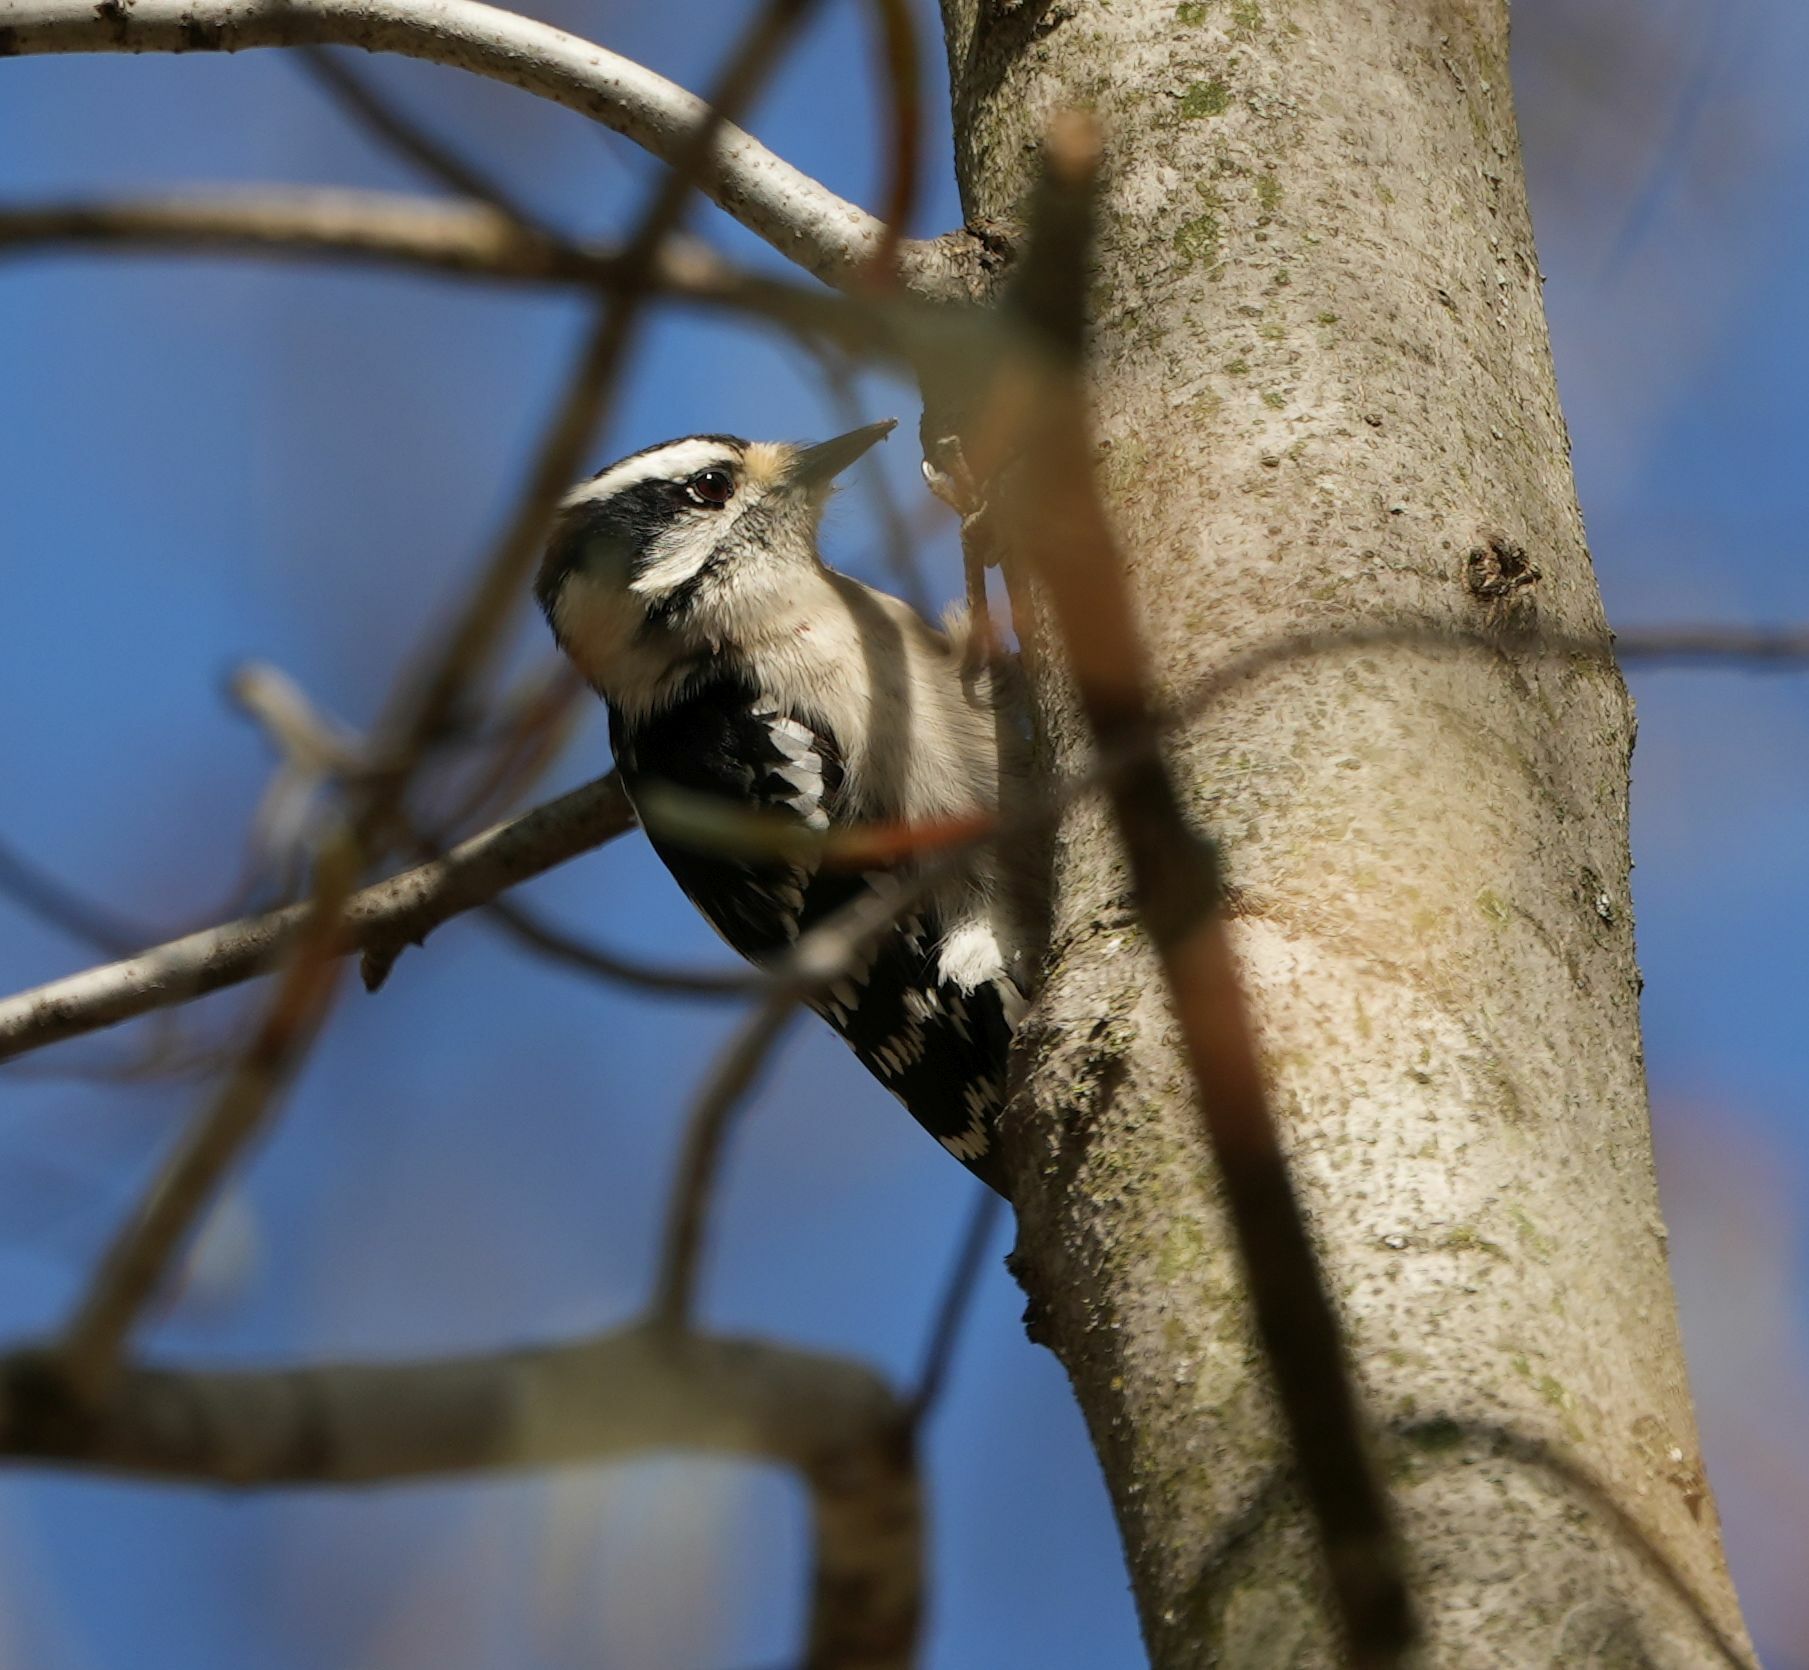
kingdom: Animalia
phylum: Chordata
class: Aves
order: Piciformes
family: Picidae
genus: Dryobates
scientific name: Dryobates pubescens
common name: Downy woodpecker
